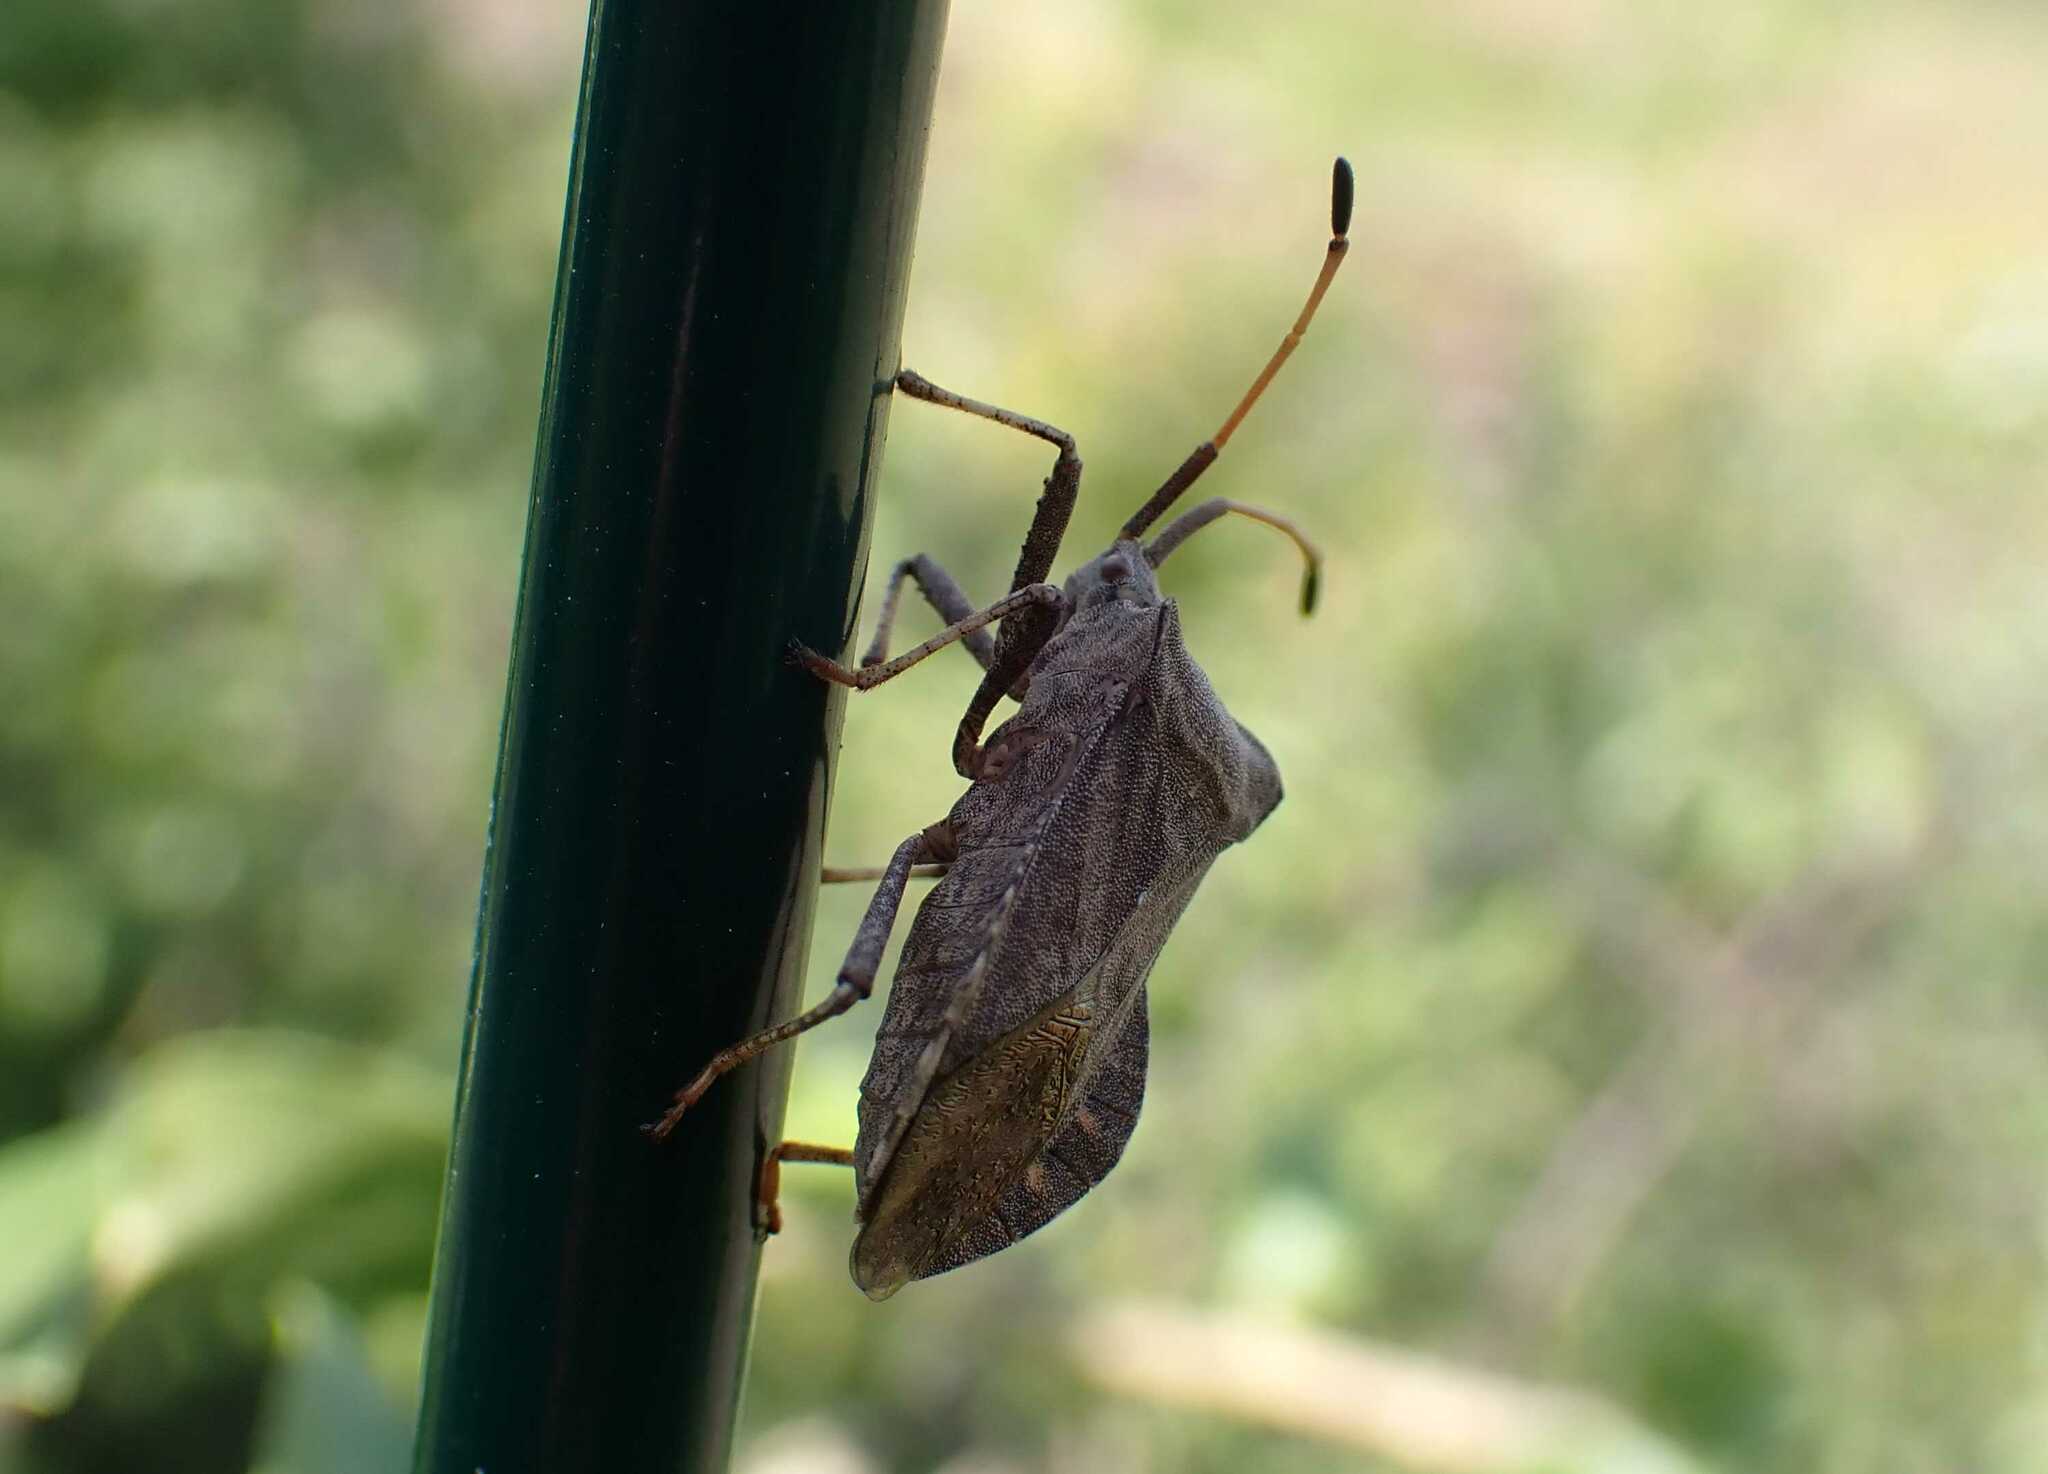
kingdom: Animalia
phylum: Arthropoda
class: Insecta
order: Hemiptera
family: Coreidae
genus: Coreus
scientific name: Coreus marginatus
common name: Dock bug
